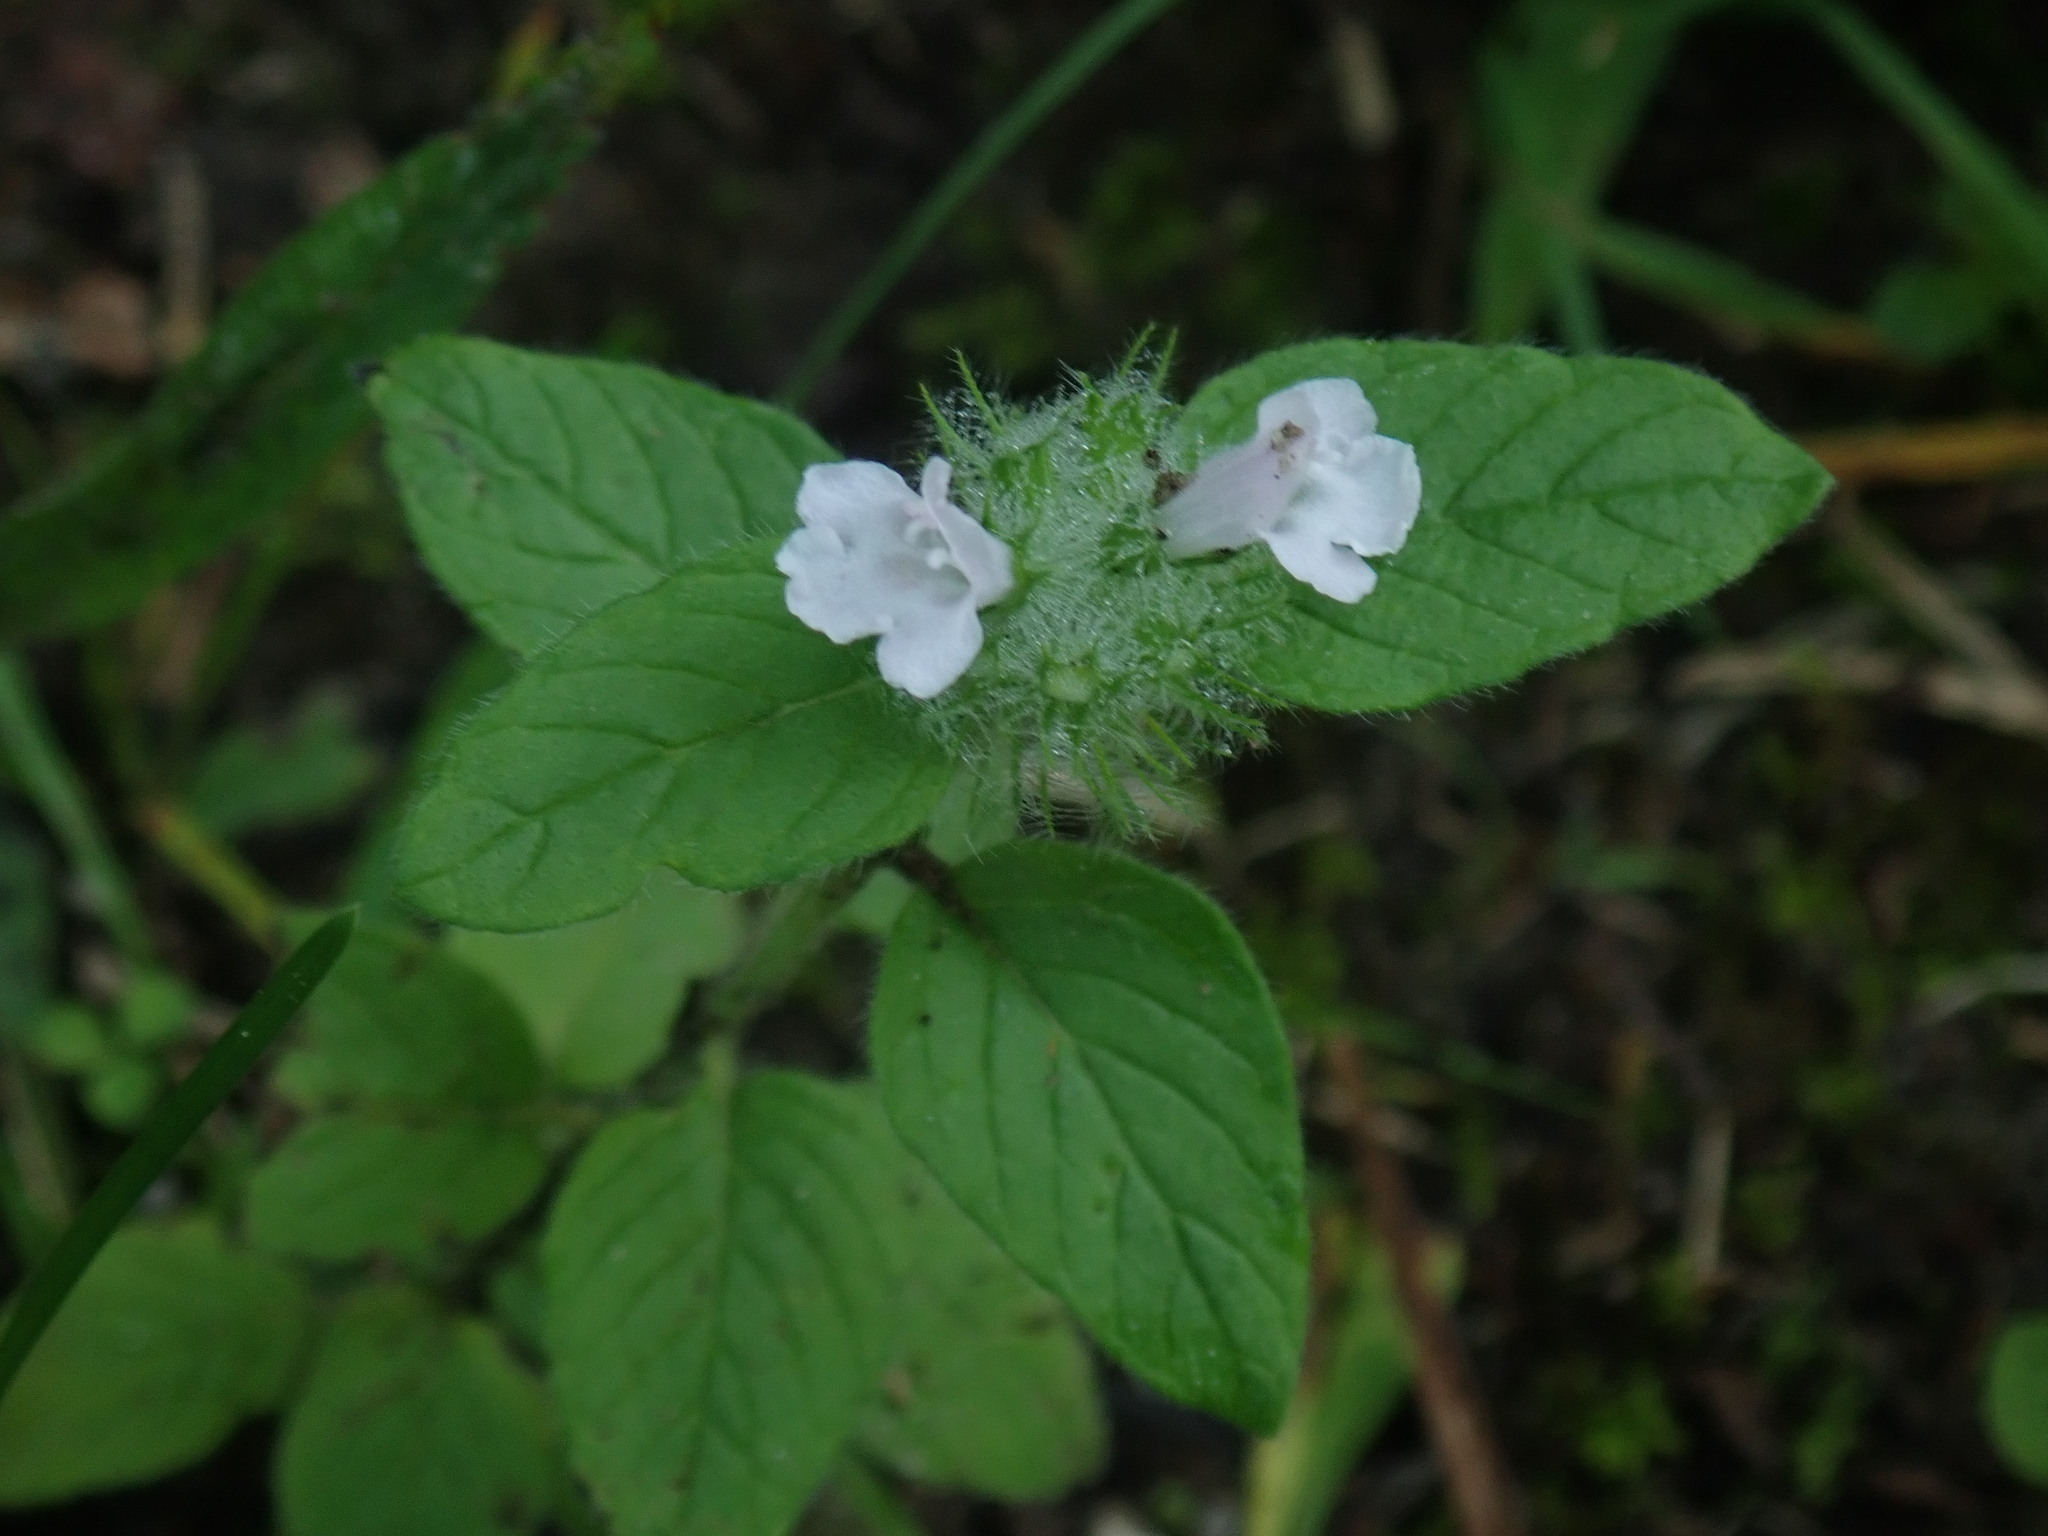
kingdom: Plantae
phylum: Tracheophyta
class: Magnoliopsida
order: Lamiales
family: Lamiaceae
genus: Clinopodium
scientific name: Clinopodium vulgare
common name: Wild basil
